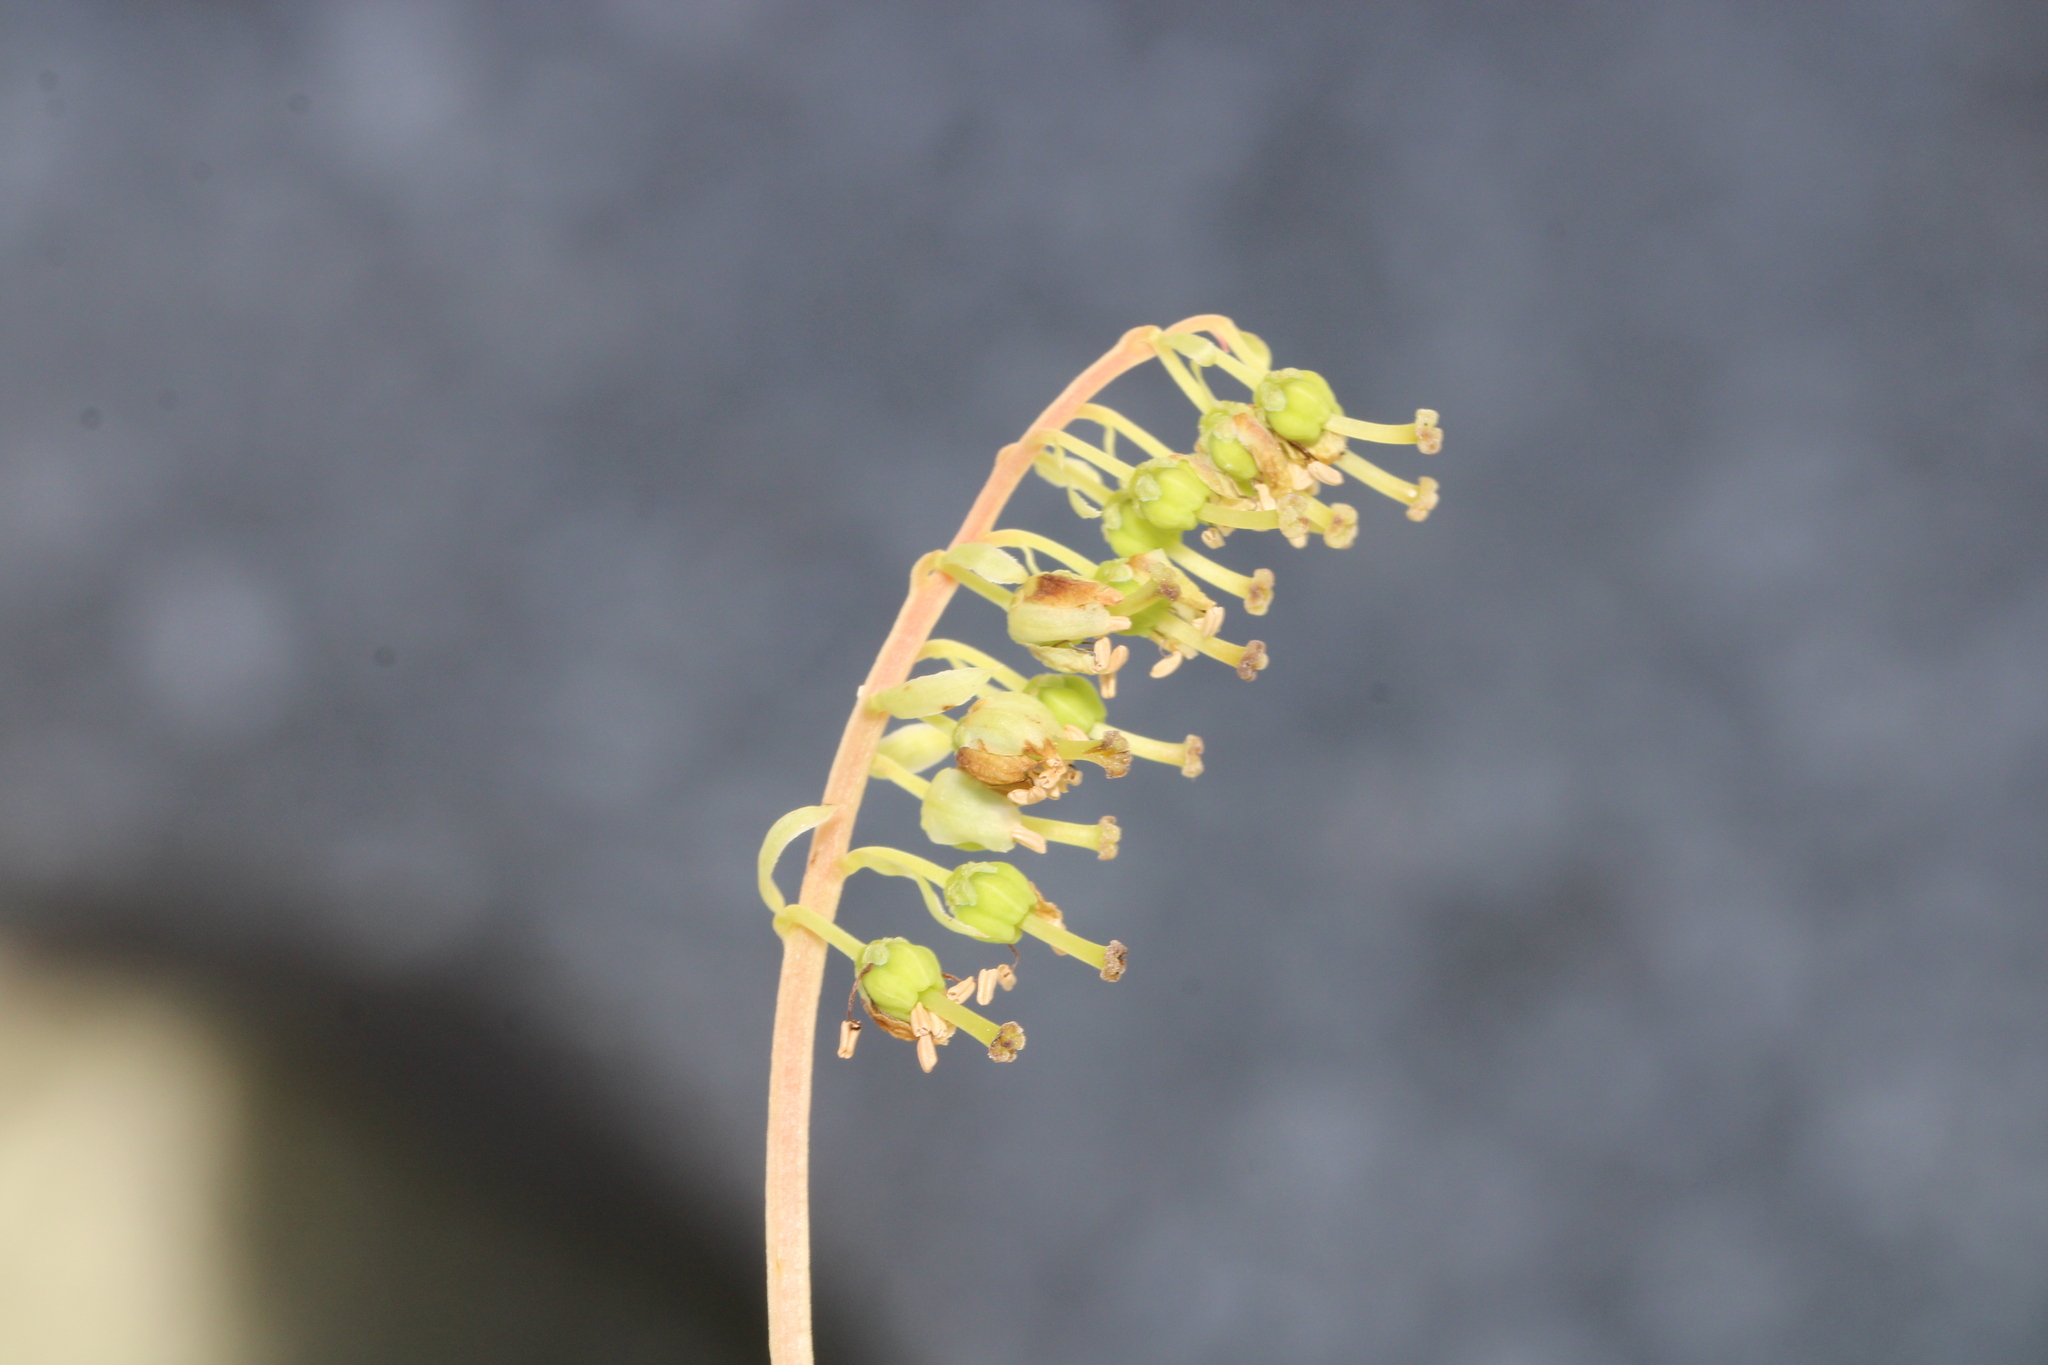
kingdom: Plantae
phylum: Tracheophyta
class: Magnoliopsida
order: Ericales
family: Ericaceae
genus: Orthilia
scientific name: Orthilia secunda
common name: One-sided orthilia
